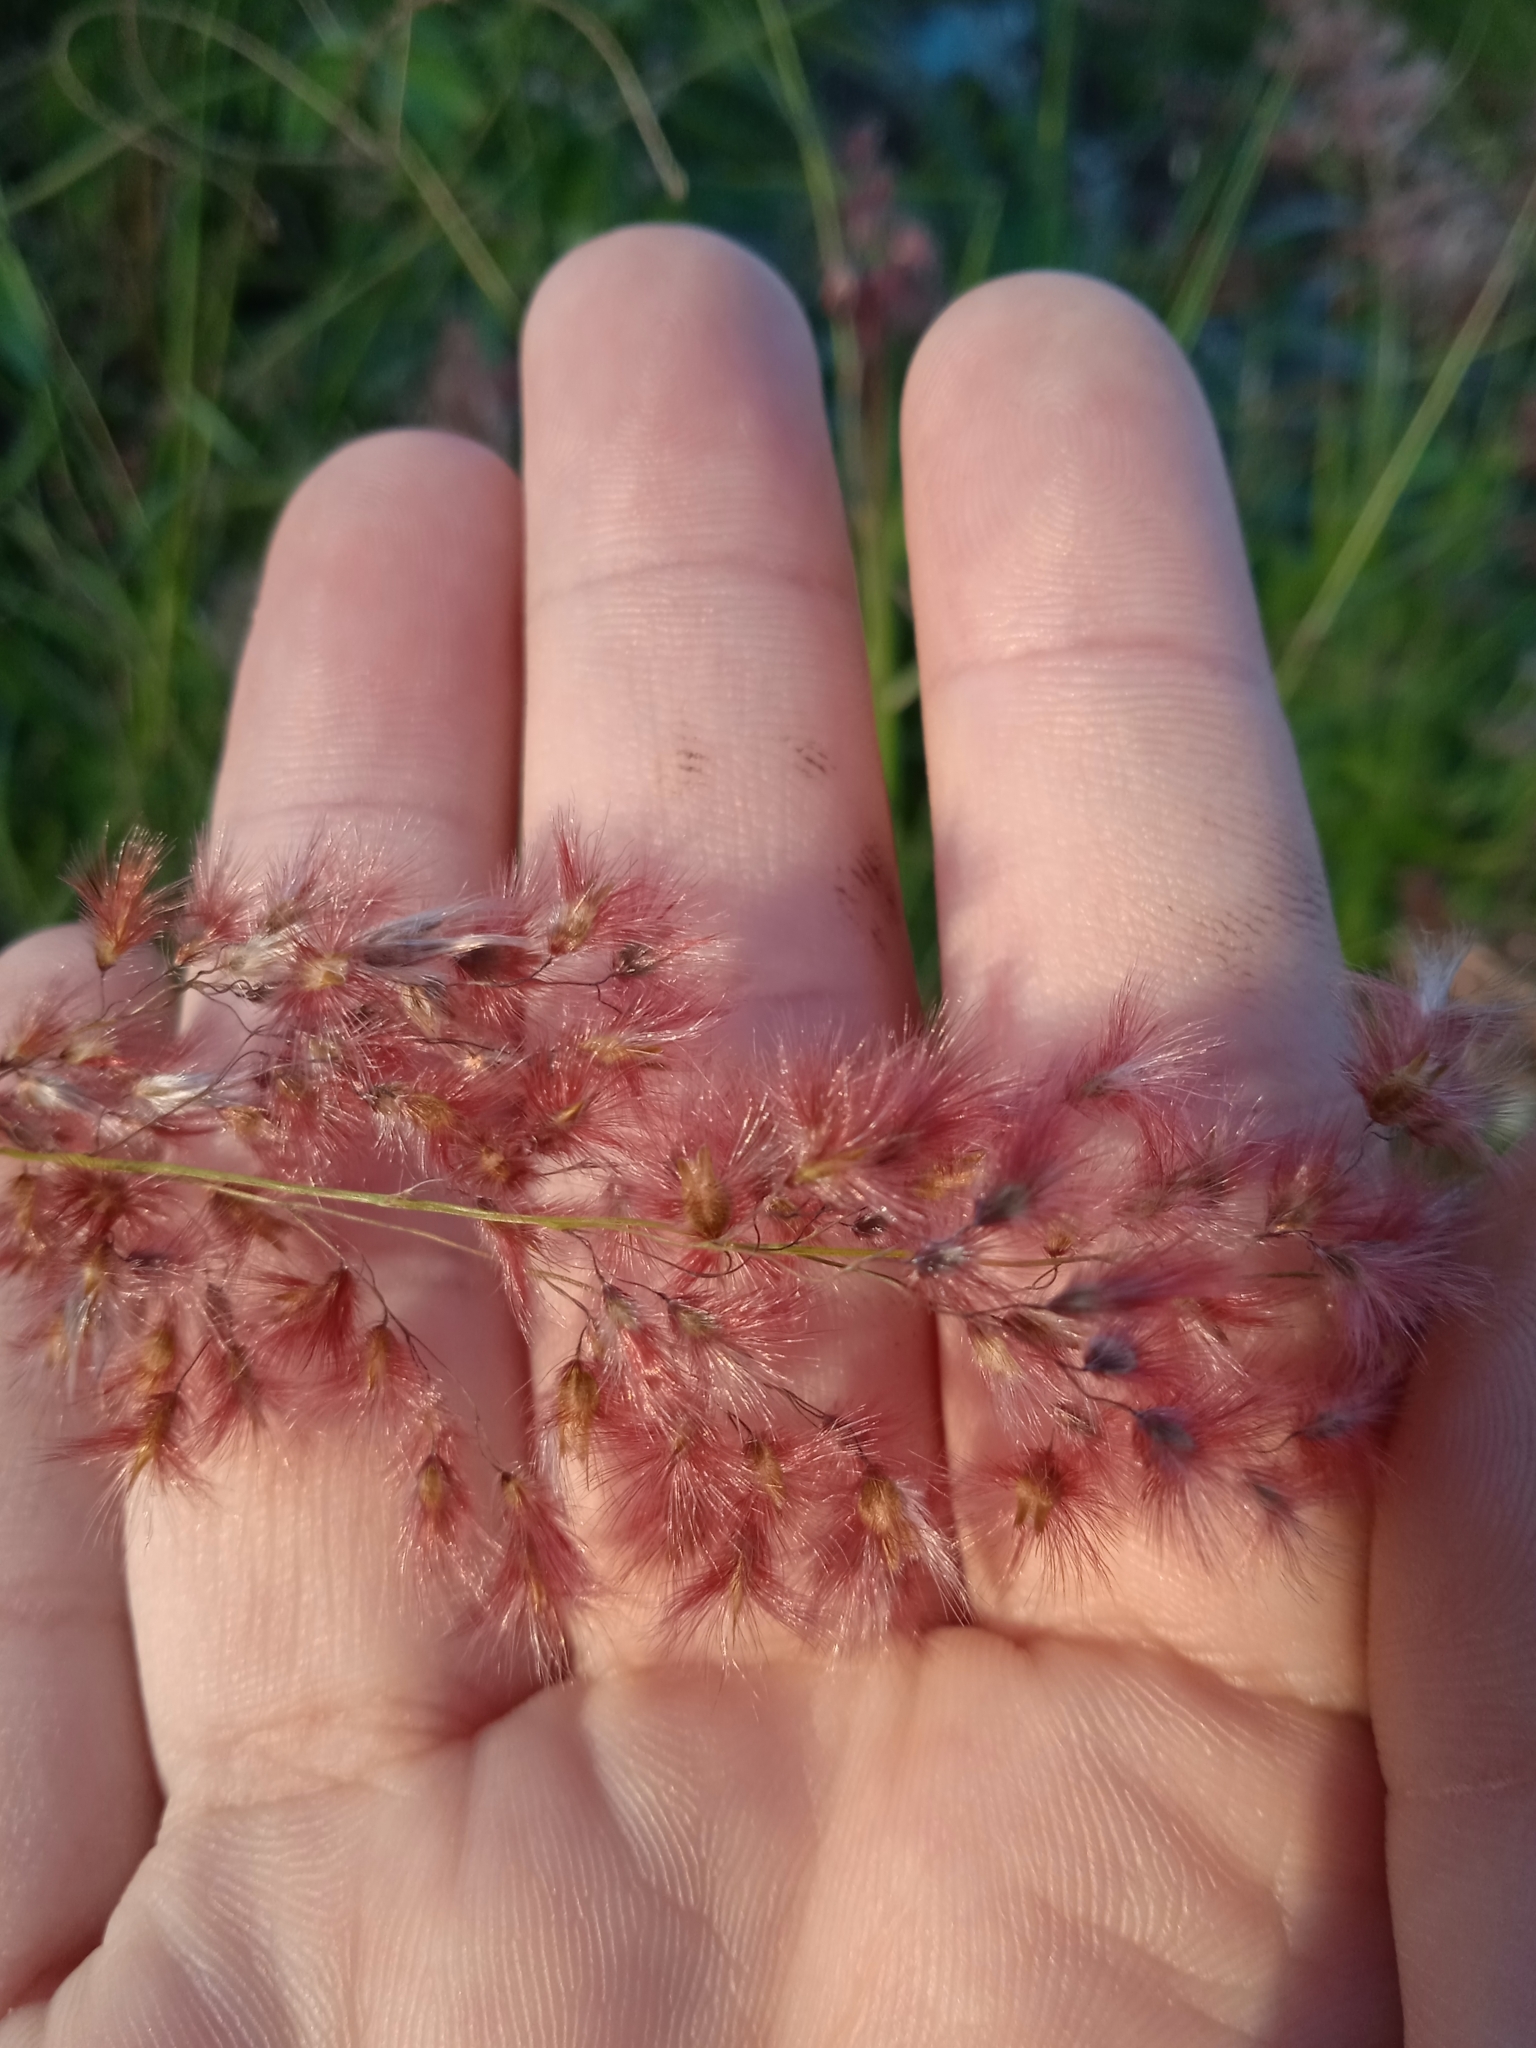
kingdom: Plantae
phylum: Tracheophyta
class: Liliopsida
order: Poales
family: Poaceae
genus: Melinis
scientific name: Melinis repens
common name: Rose natal grass
